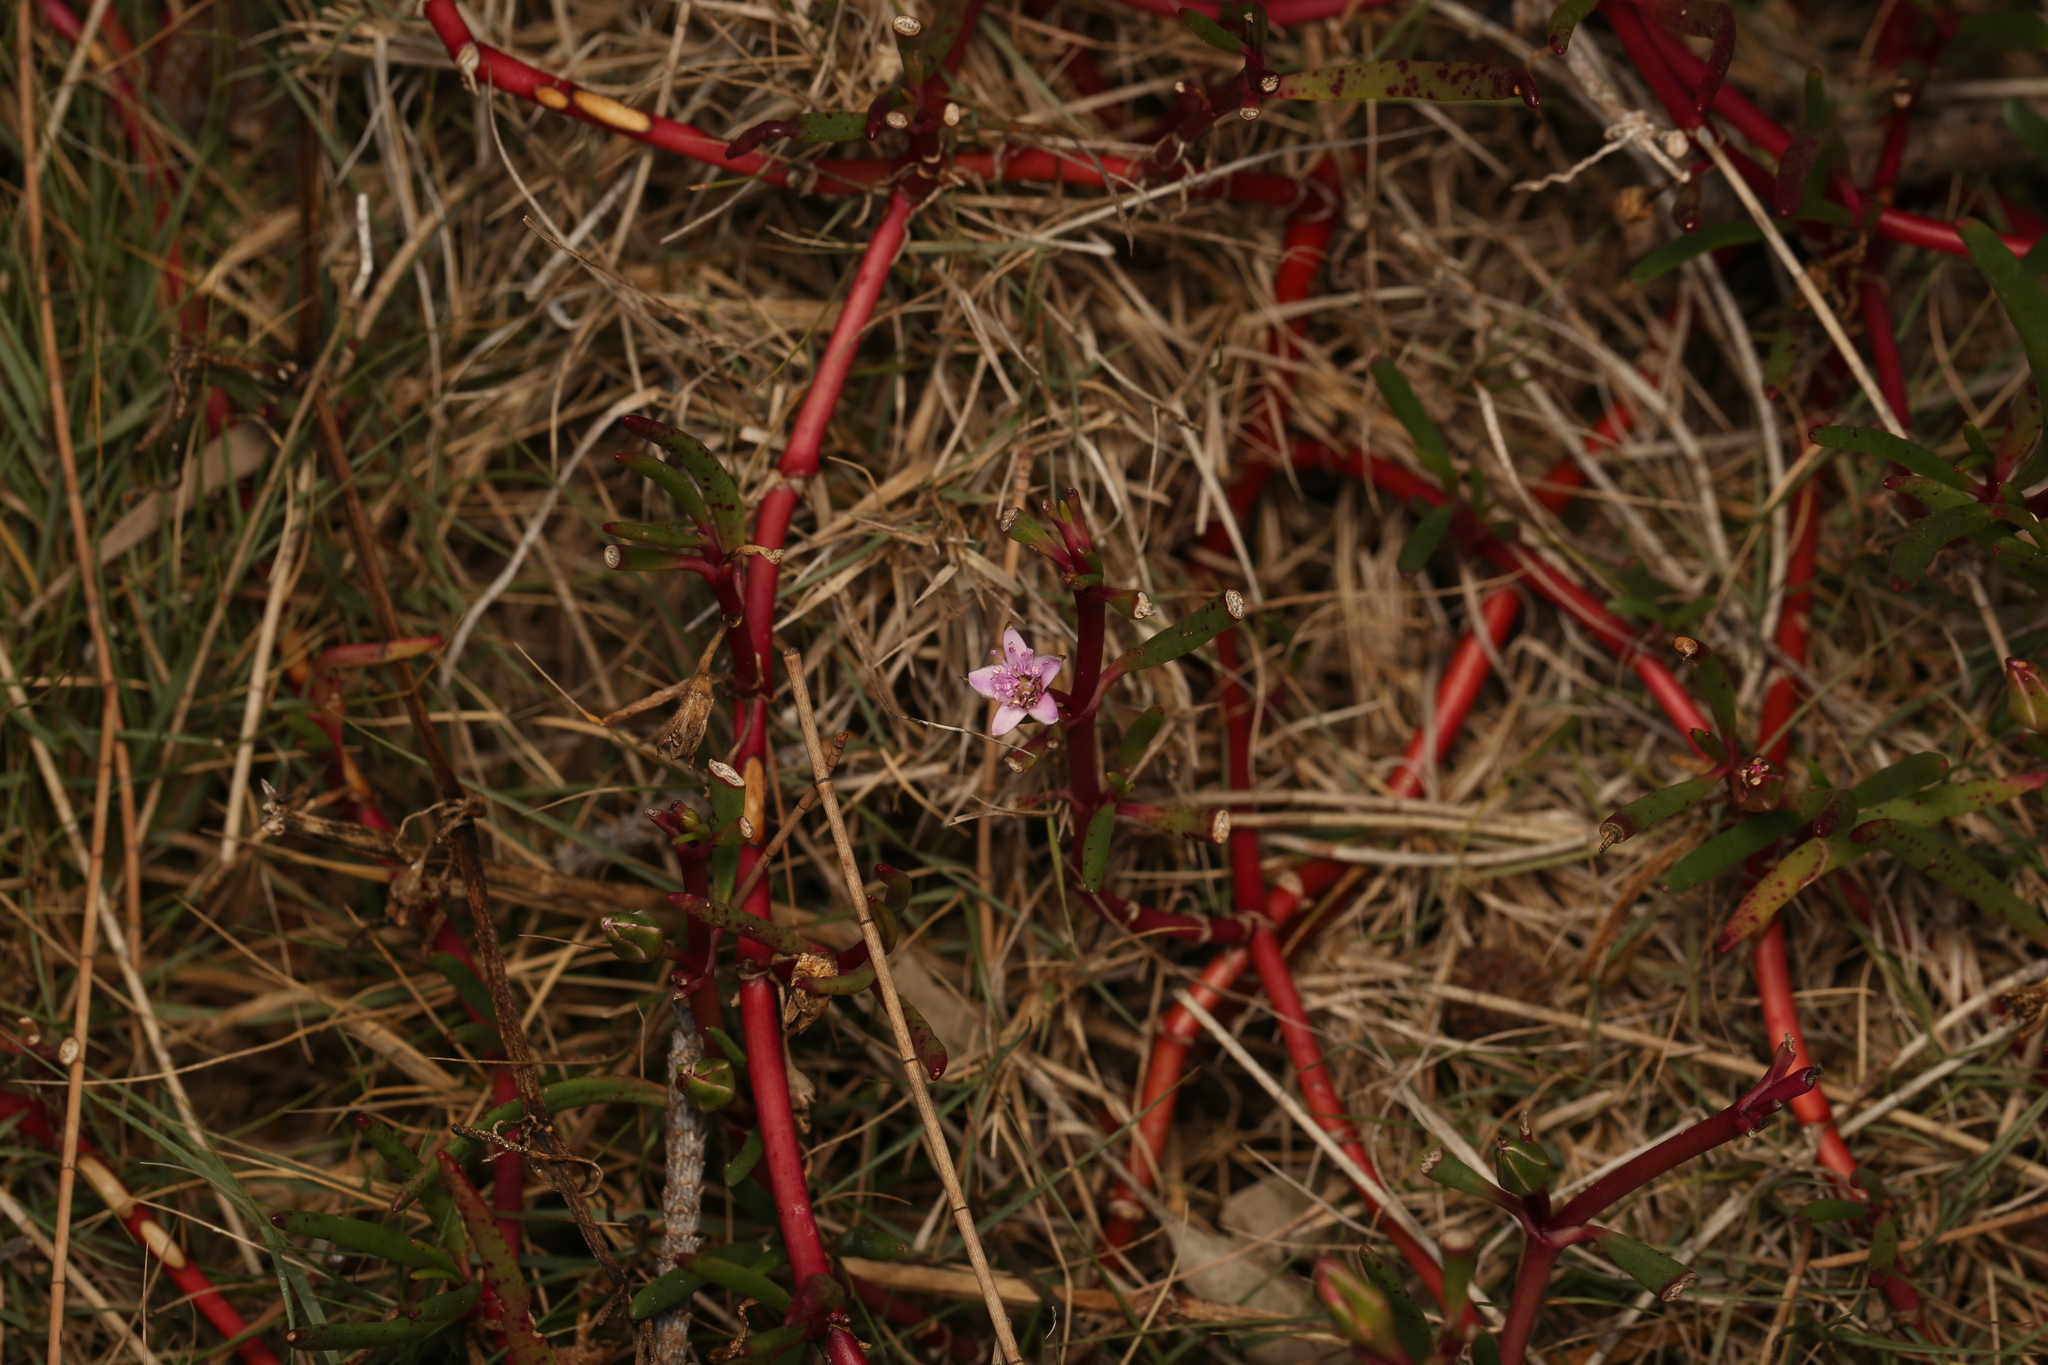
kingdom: Plantae
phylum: Tracheophyta
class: Magnoliopsida
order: Caryophyllales
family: Aizoaceae
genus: Sesuvium
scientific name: Sesuvium portulacastrum
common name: Sea-purslane
